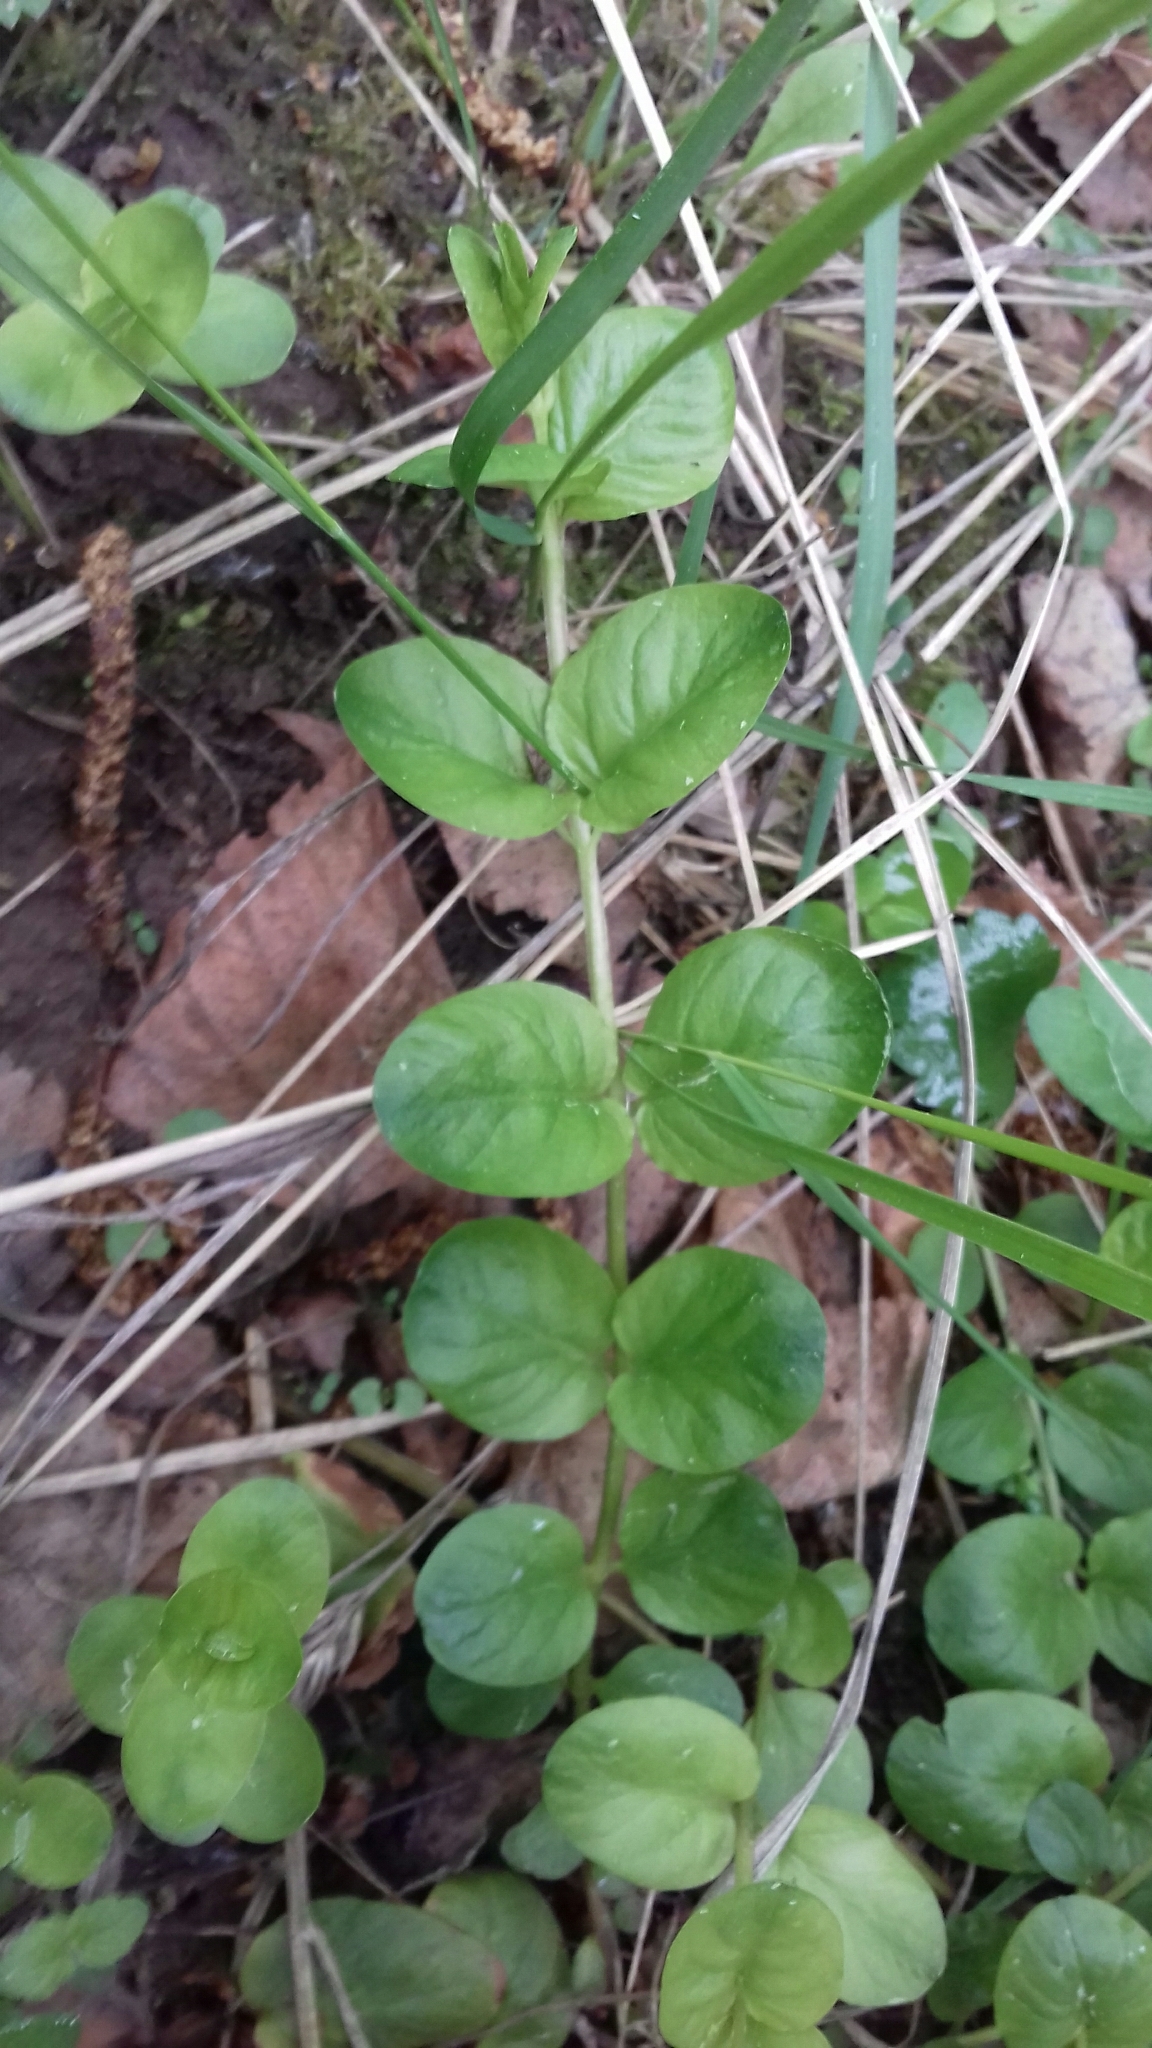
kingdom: Plantae
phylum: Tracheophyta
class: Magnoliopsida
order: Ericales
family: Primulaceae
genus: Lysimachia
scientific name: Lysimachia nummularia
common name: Moneywort
